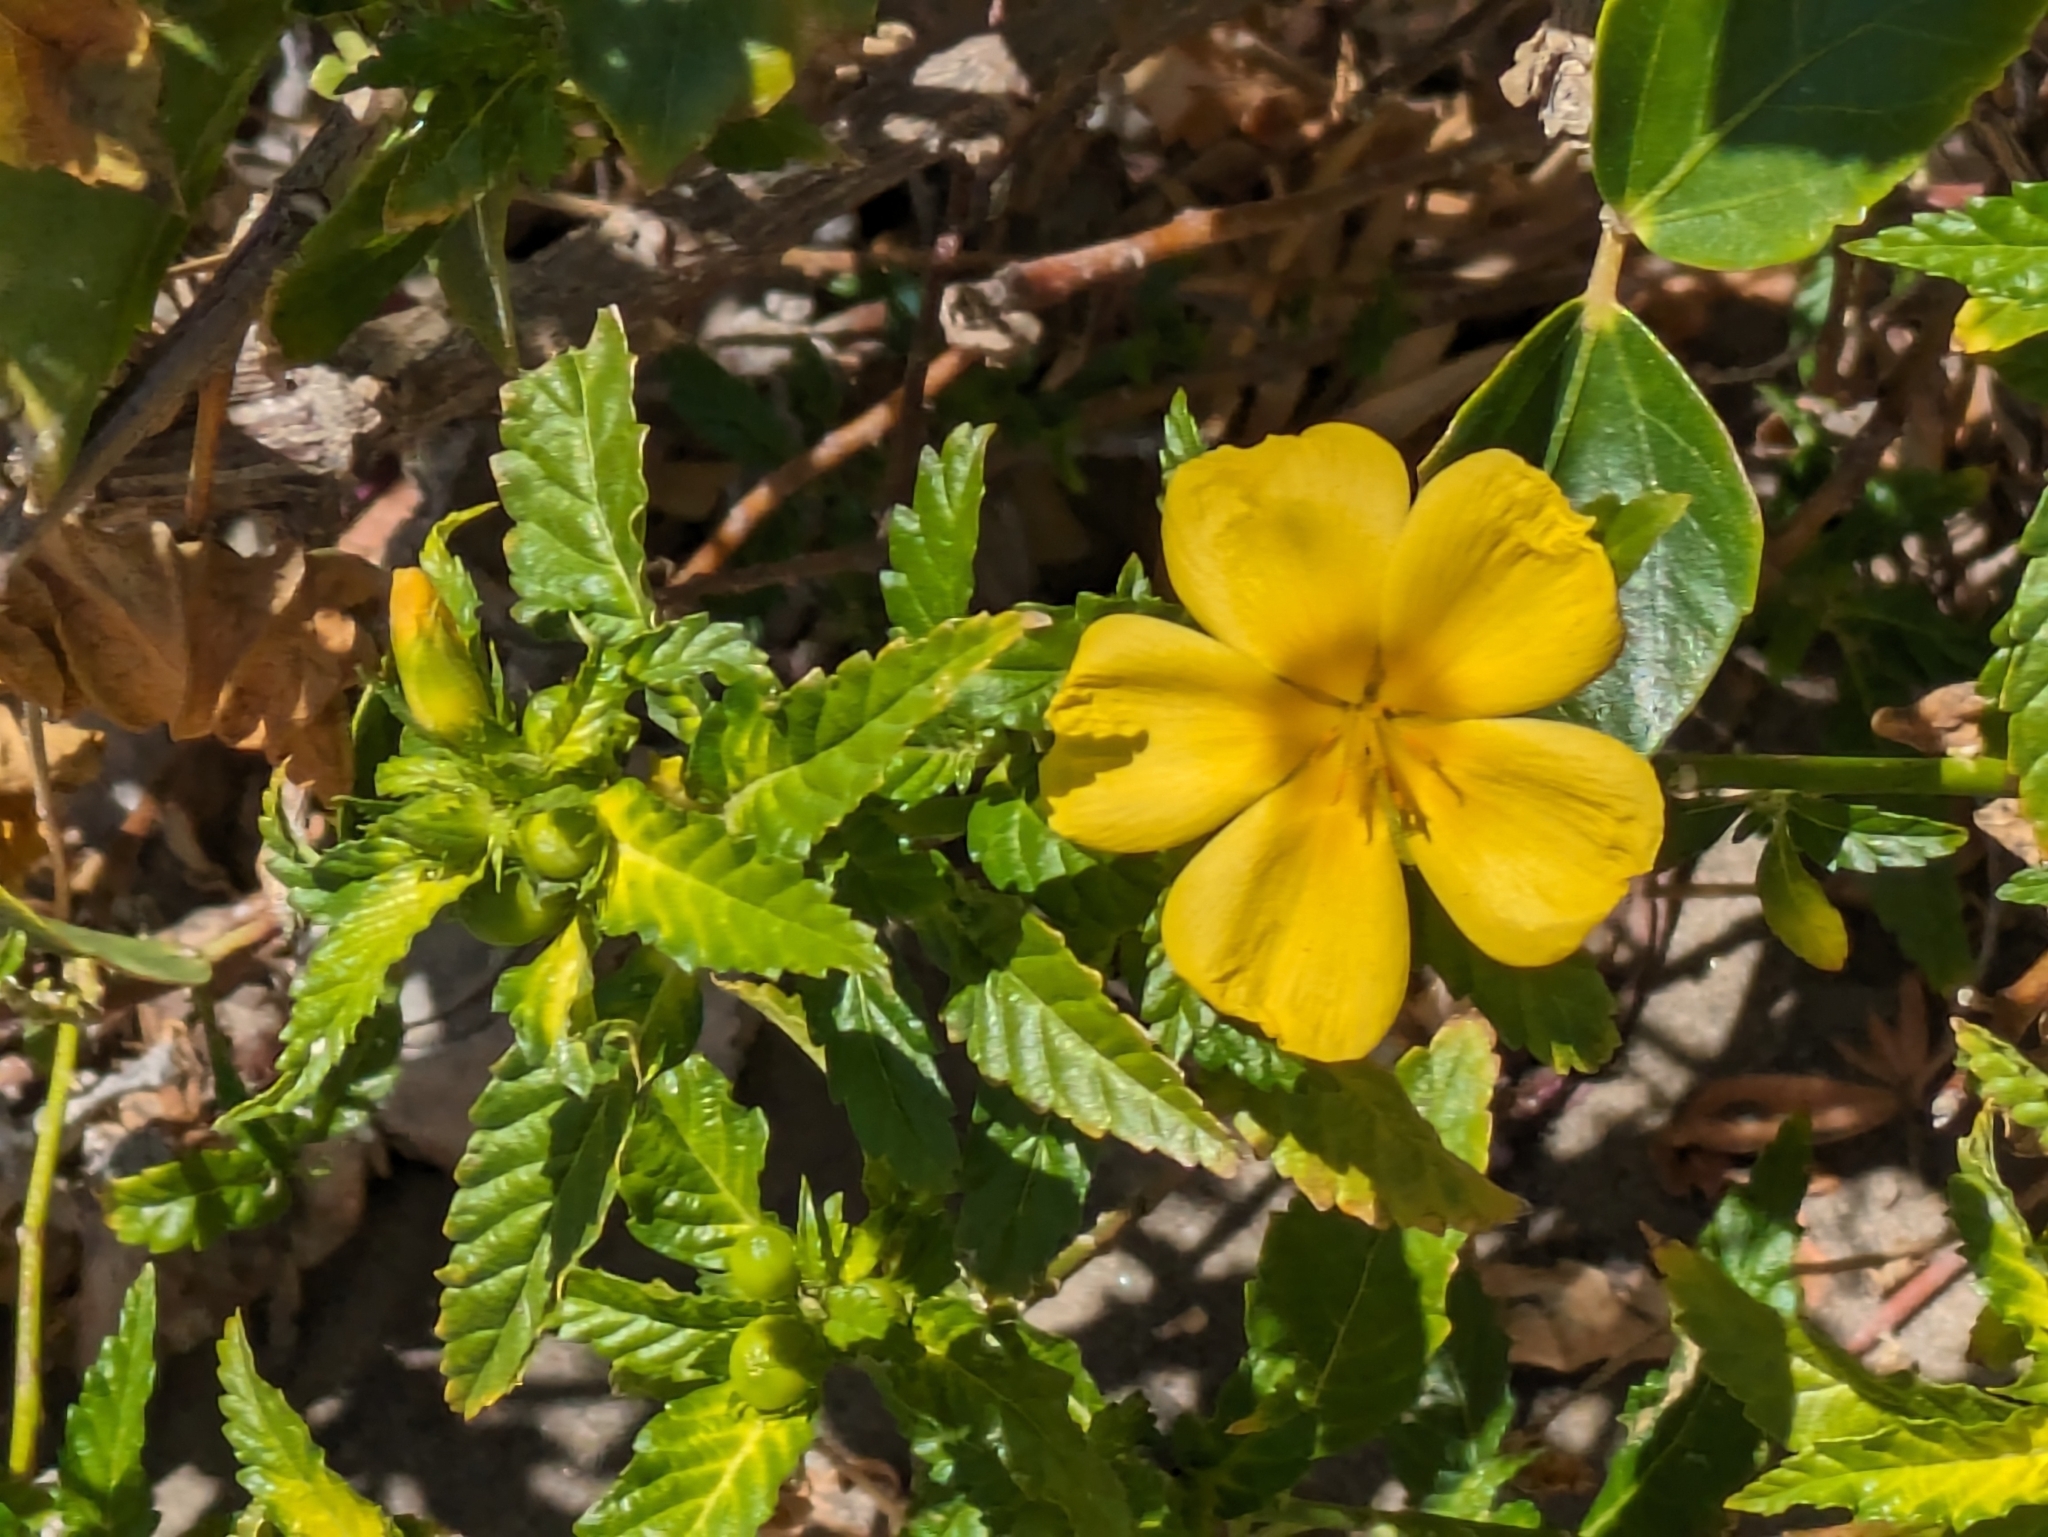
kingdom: Plantae
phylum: Tracheophyta
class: Magnoliopsida
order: Malpighiales
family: Turneraceae
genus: Turnera
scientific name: Turnera ulmifolia
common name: Ramgoat dashalong
